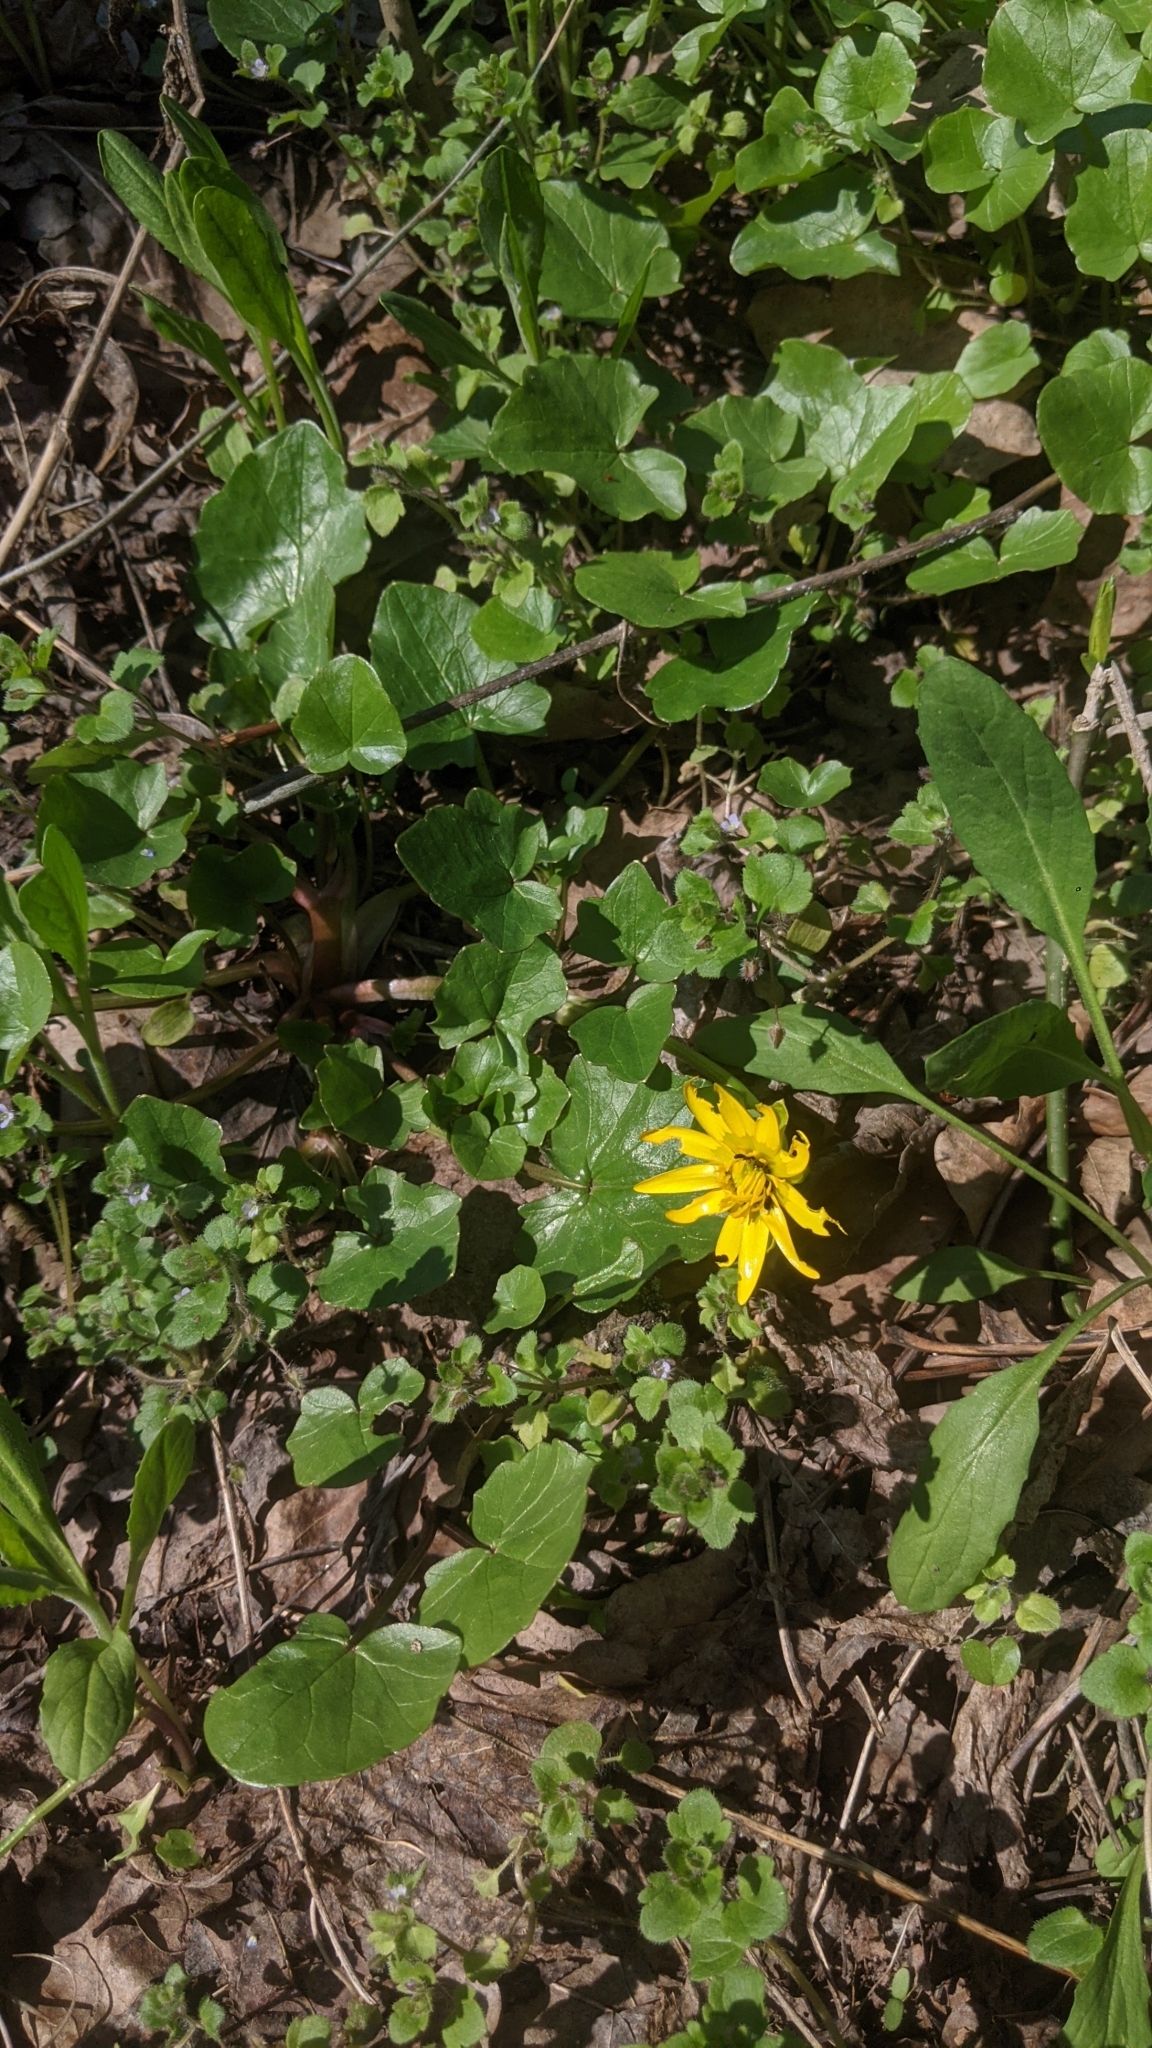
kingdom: Plantae
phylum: Tracheophyta
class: Magnoliopsida
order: Ranunculales
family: Ranunculaceae
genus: Ficaria
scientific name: Ficaria verna
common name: Lesser celandine
